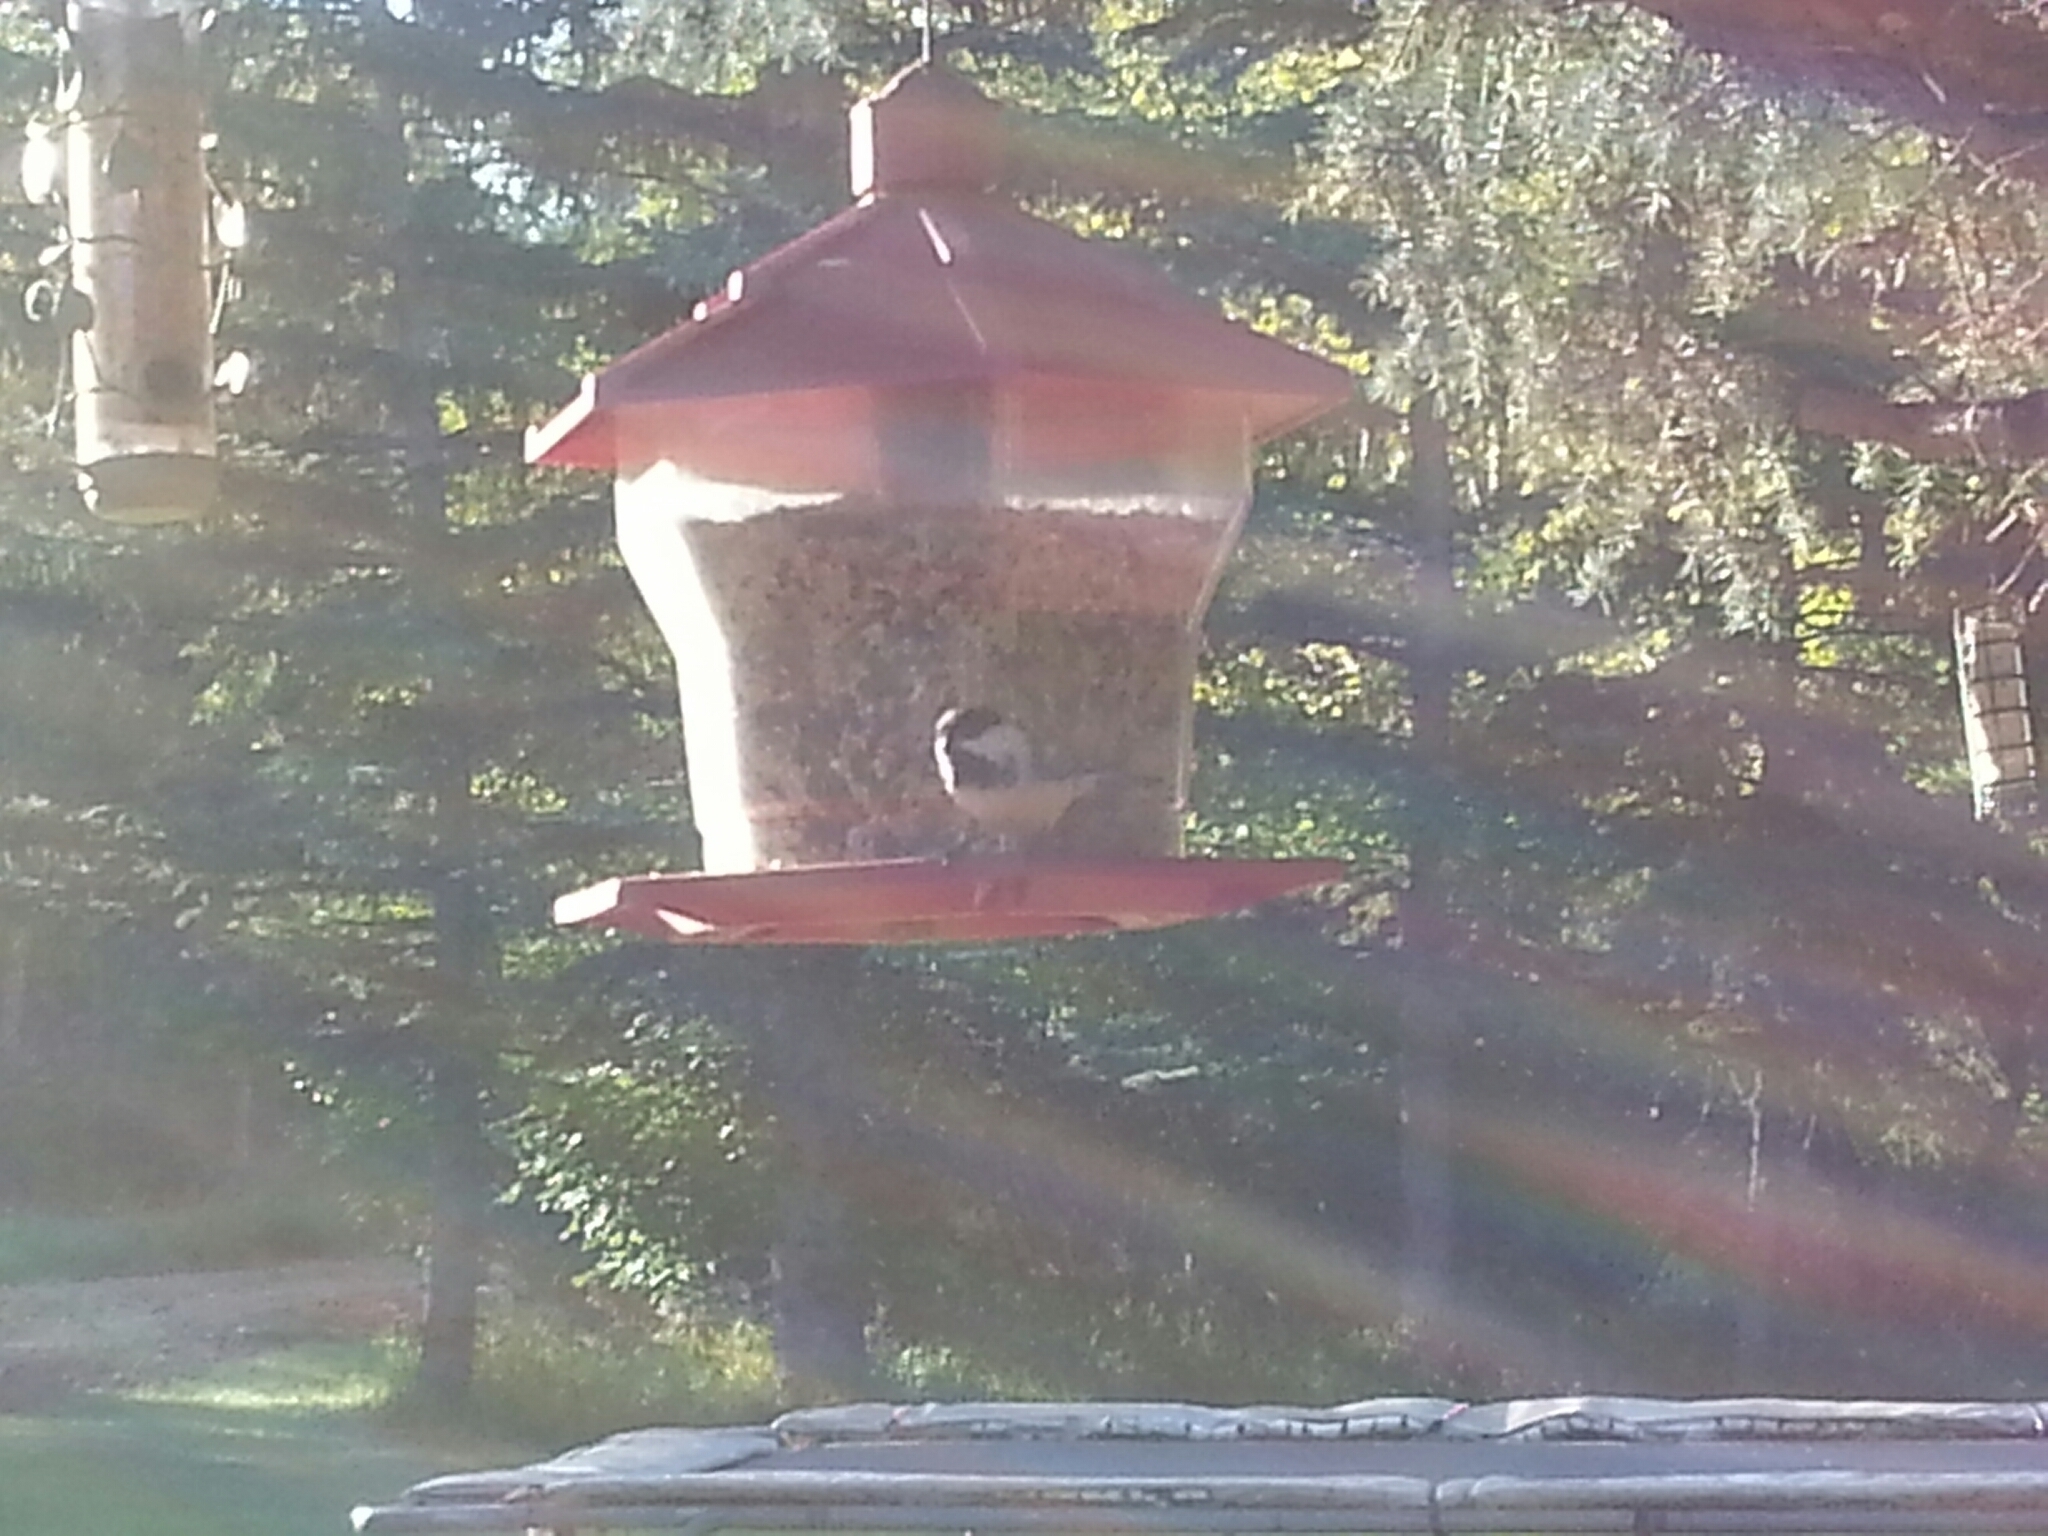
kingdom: Animalia
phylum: Chordata
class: Aves
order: Passeriformes
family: Paridae
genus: Poecile
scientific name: Poecile atricapillus
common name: Black-capped chickadee
